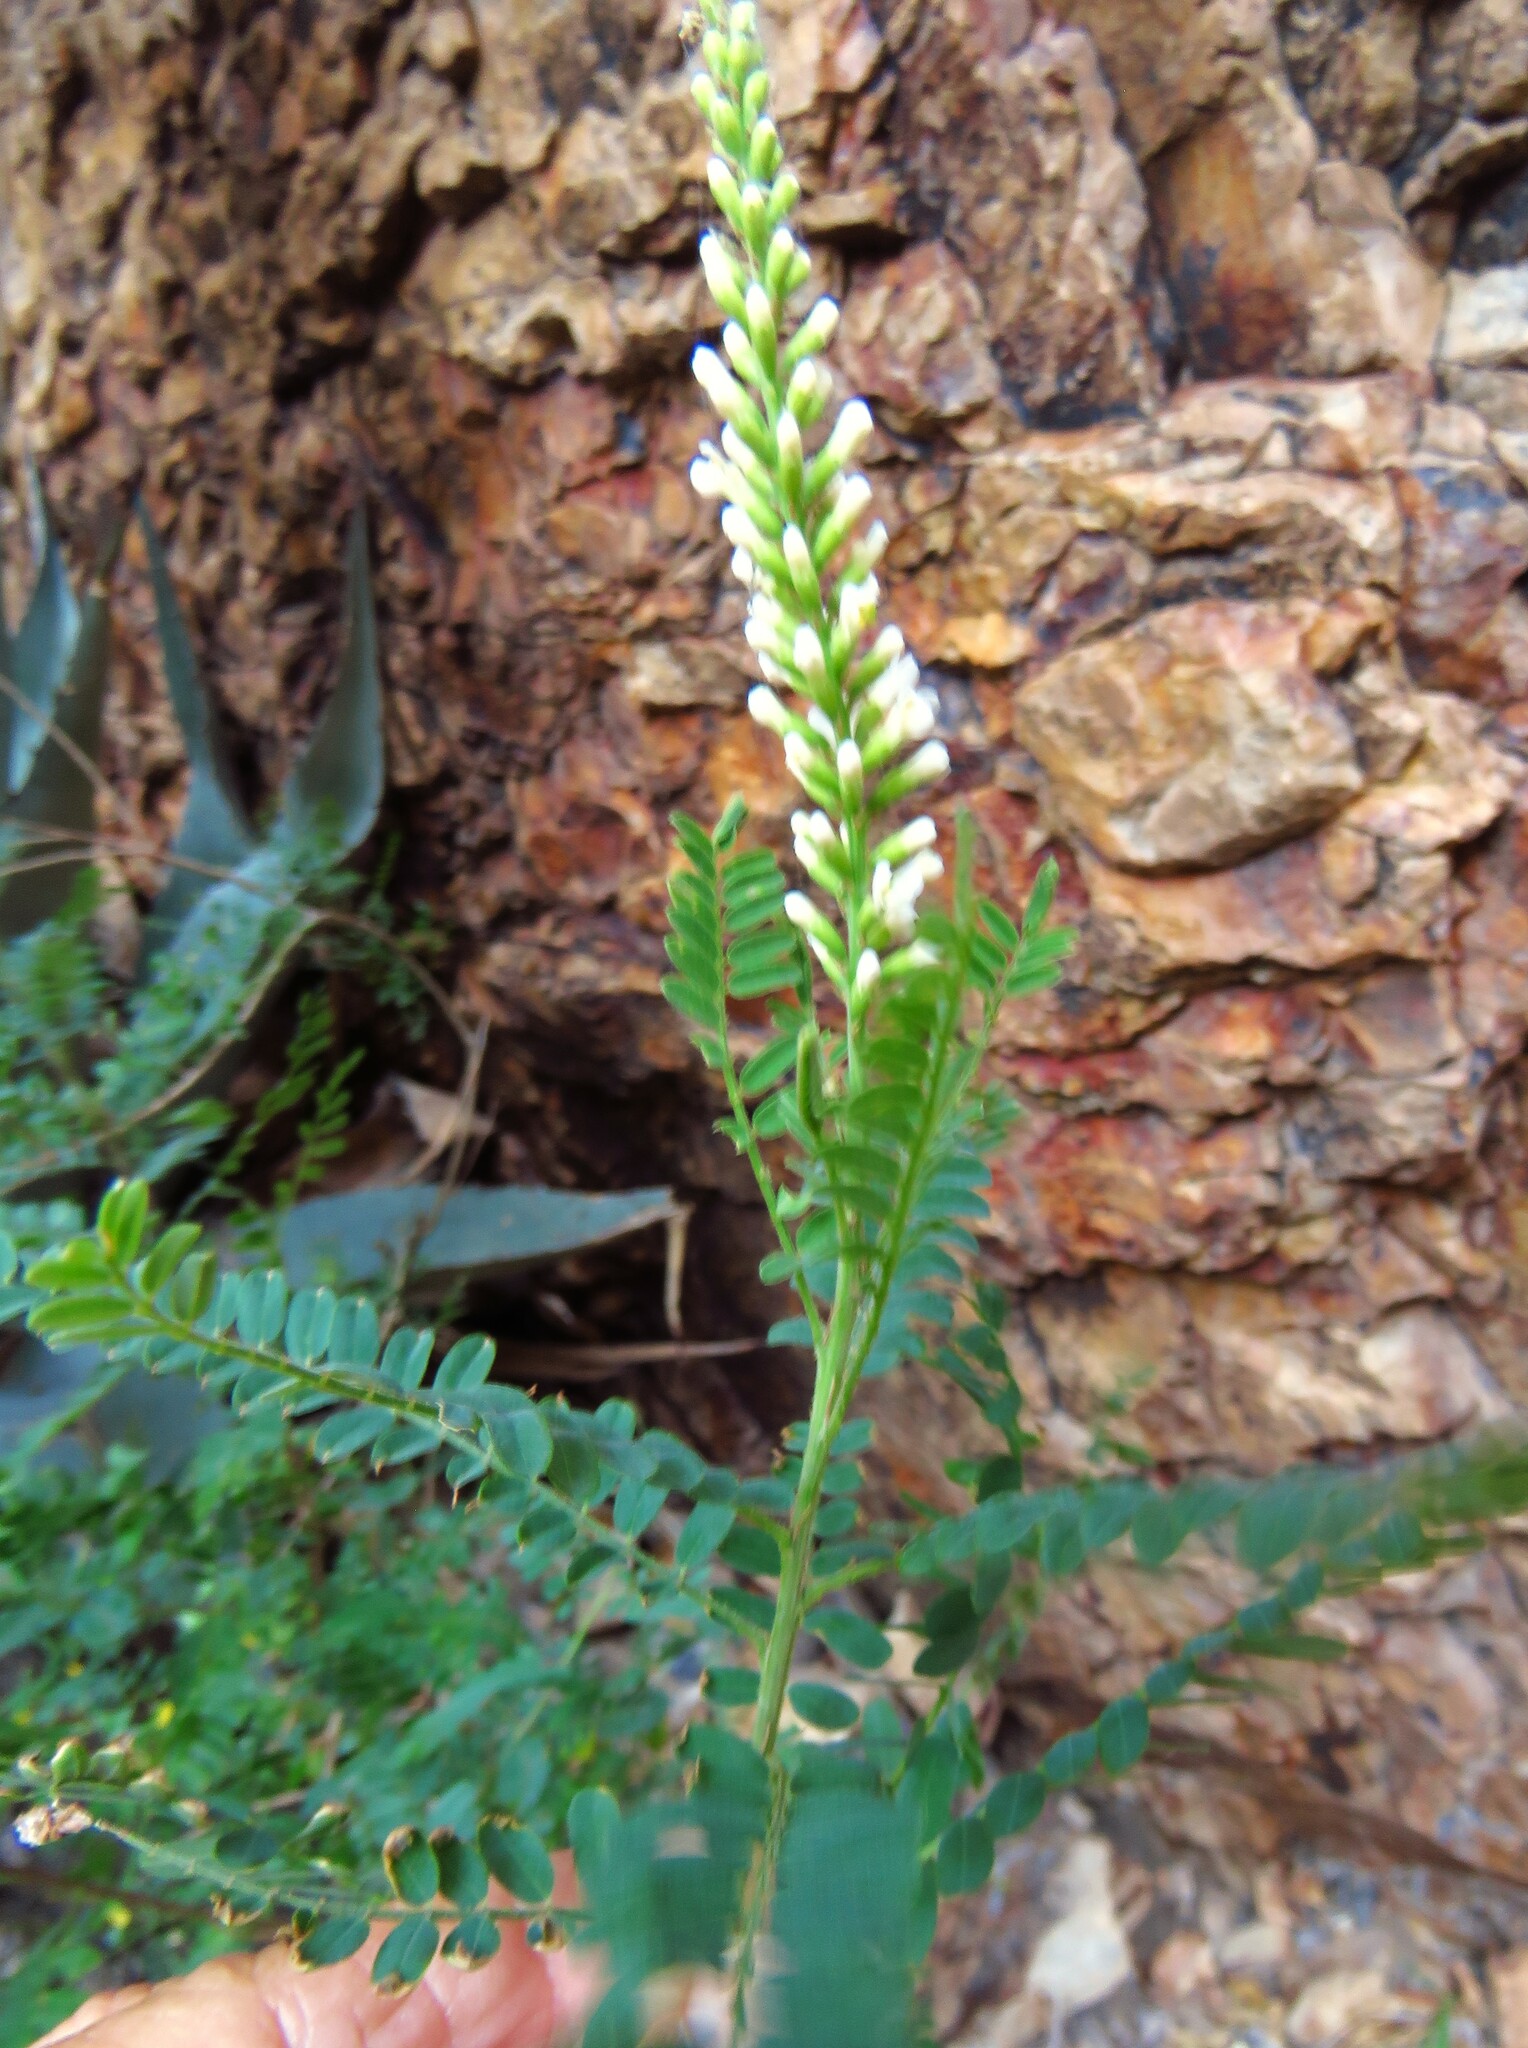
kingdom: Plantae
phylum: Tracheophyta
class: Magnoliopsida
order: Fabales
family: Fabaceae
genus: Eysenhardtia
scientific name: Eysenhardtia texana
